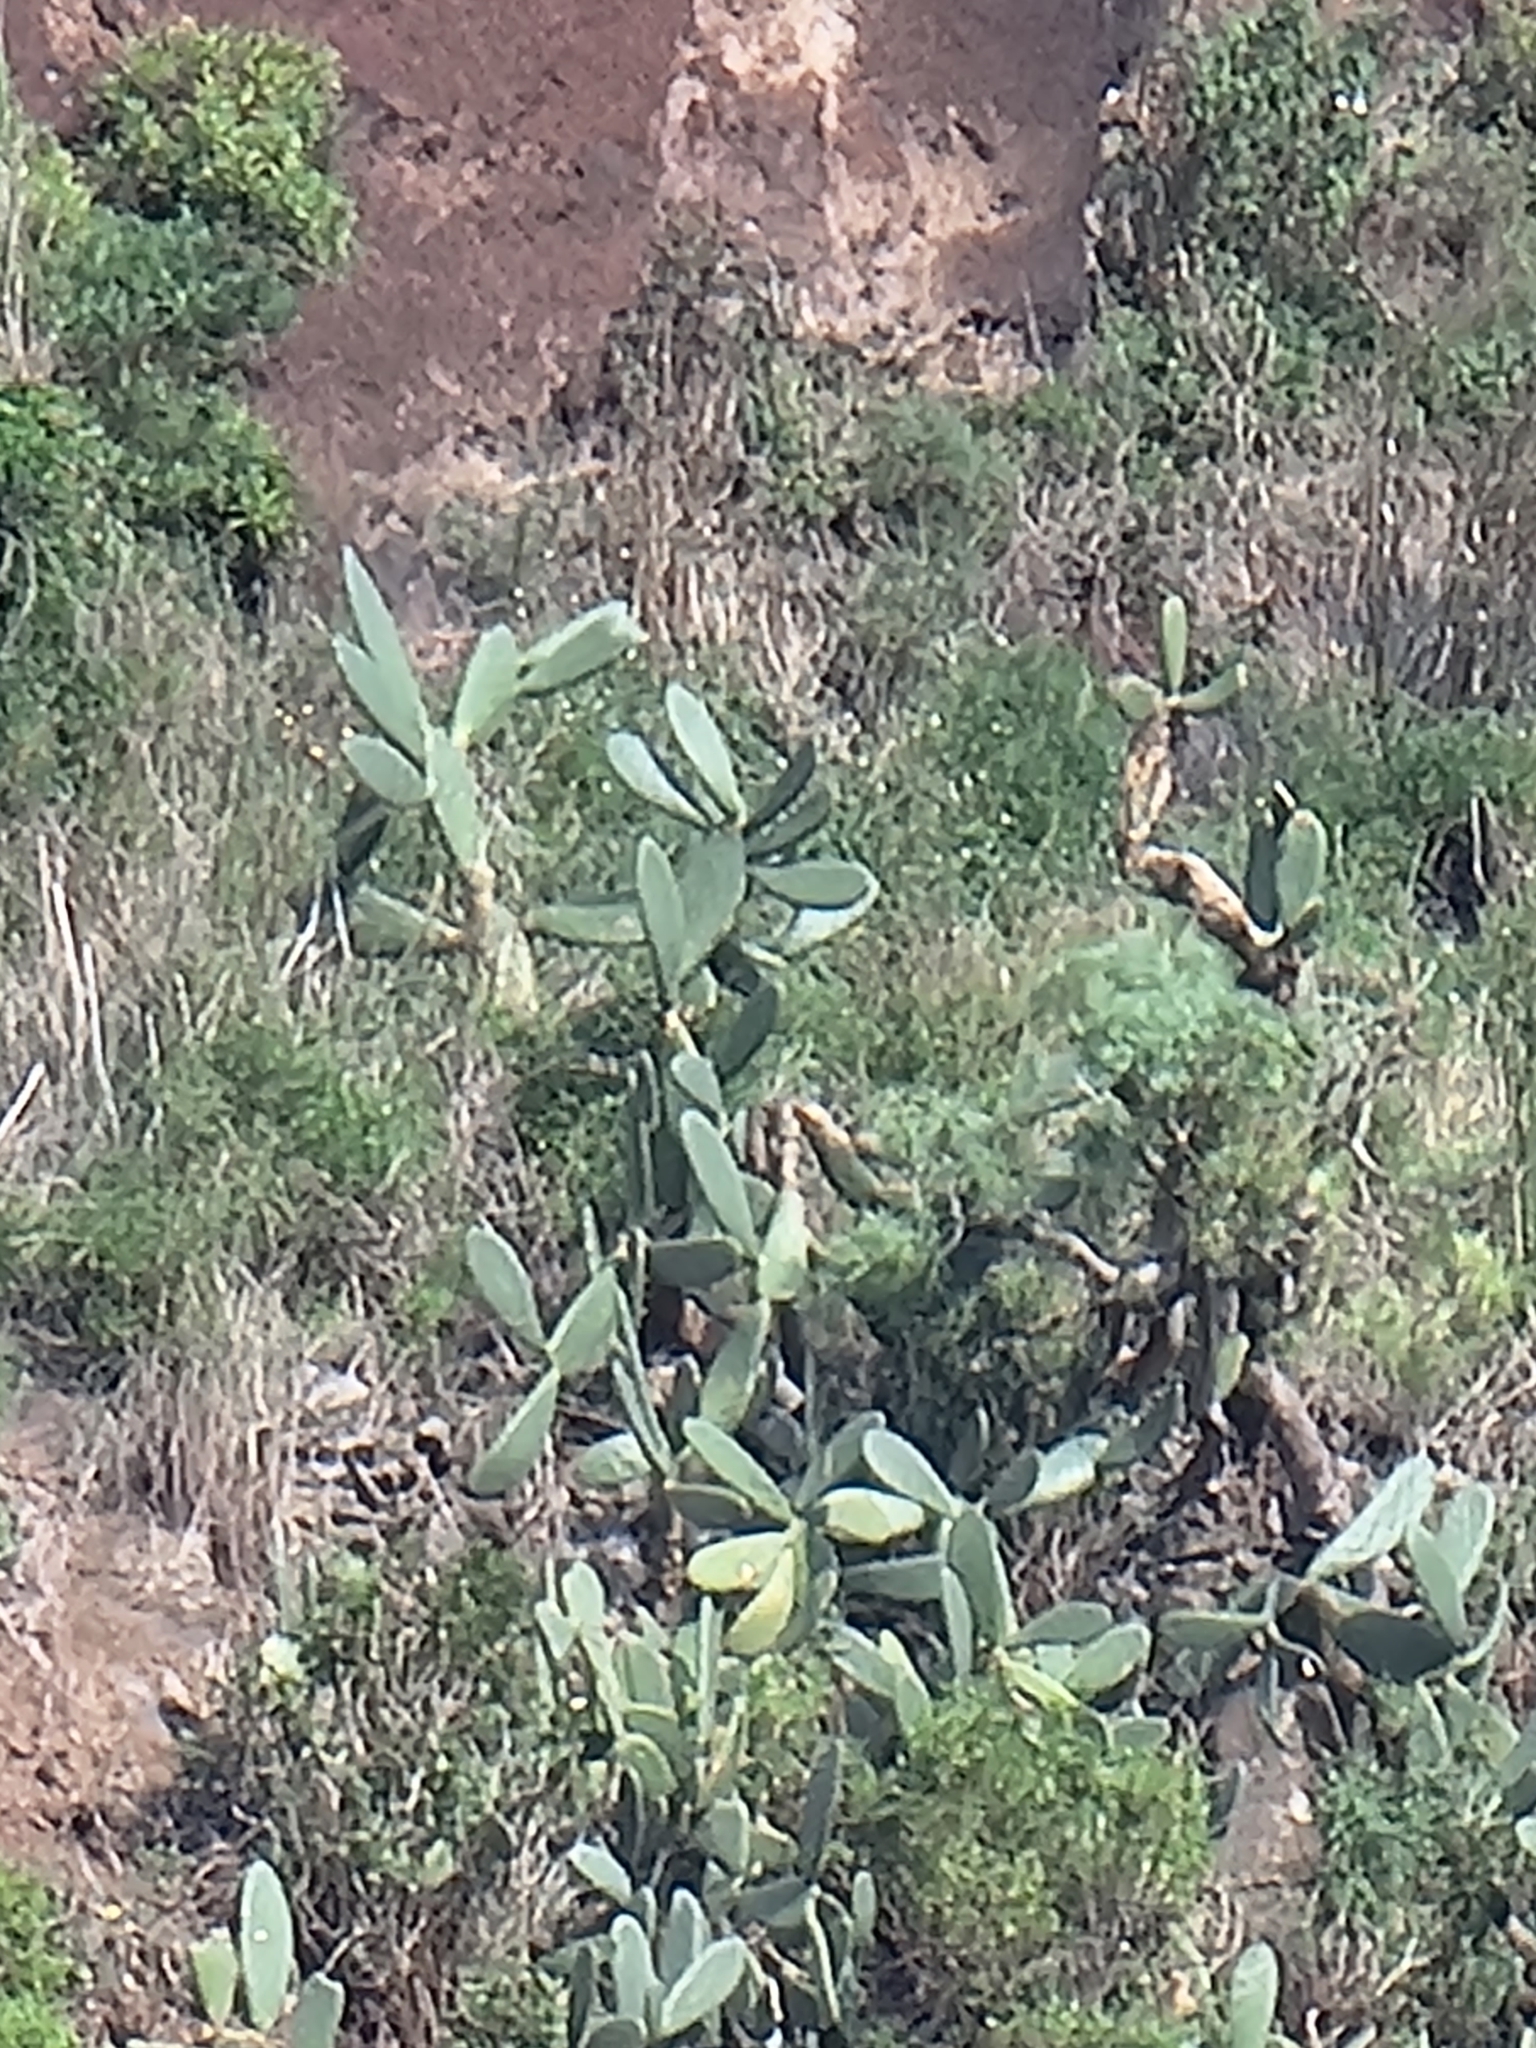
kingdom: Plantae
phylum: Tracheophyta
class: Magnoliopsida
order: Caryophyllales
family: Cactaceae
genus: Opuntia
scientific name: Opuntia ficus-indica
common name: Barbary fig
